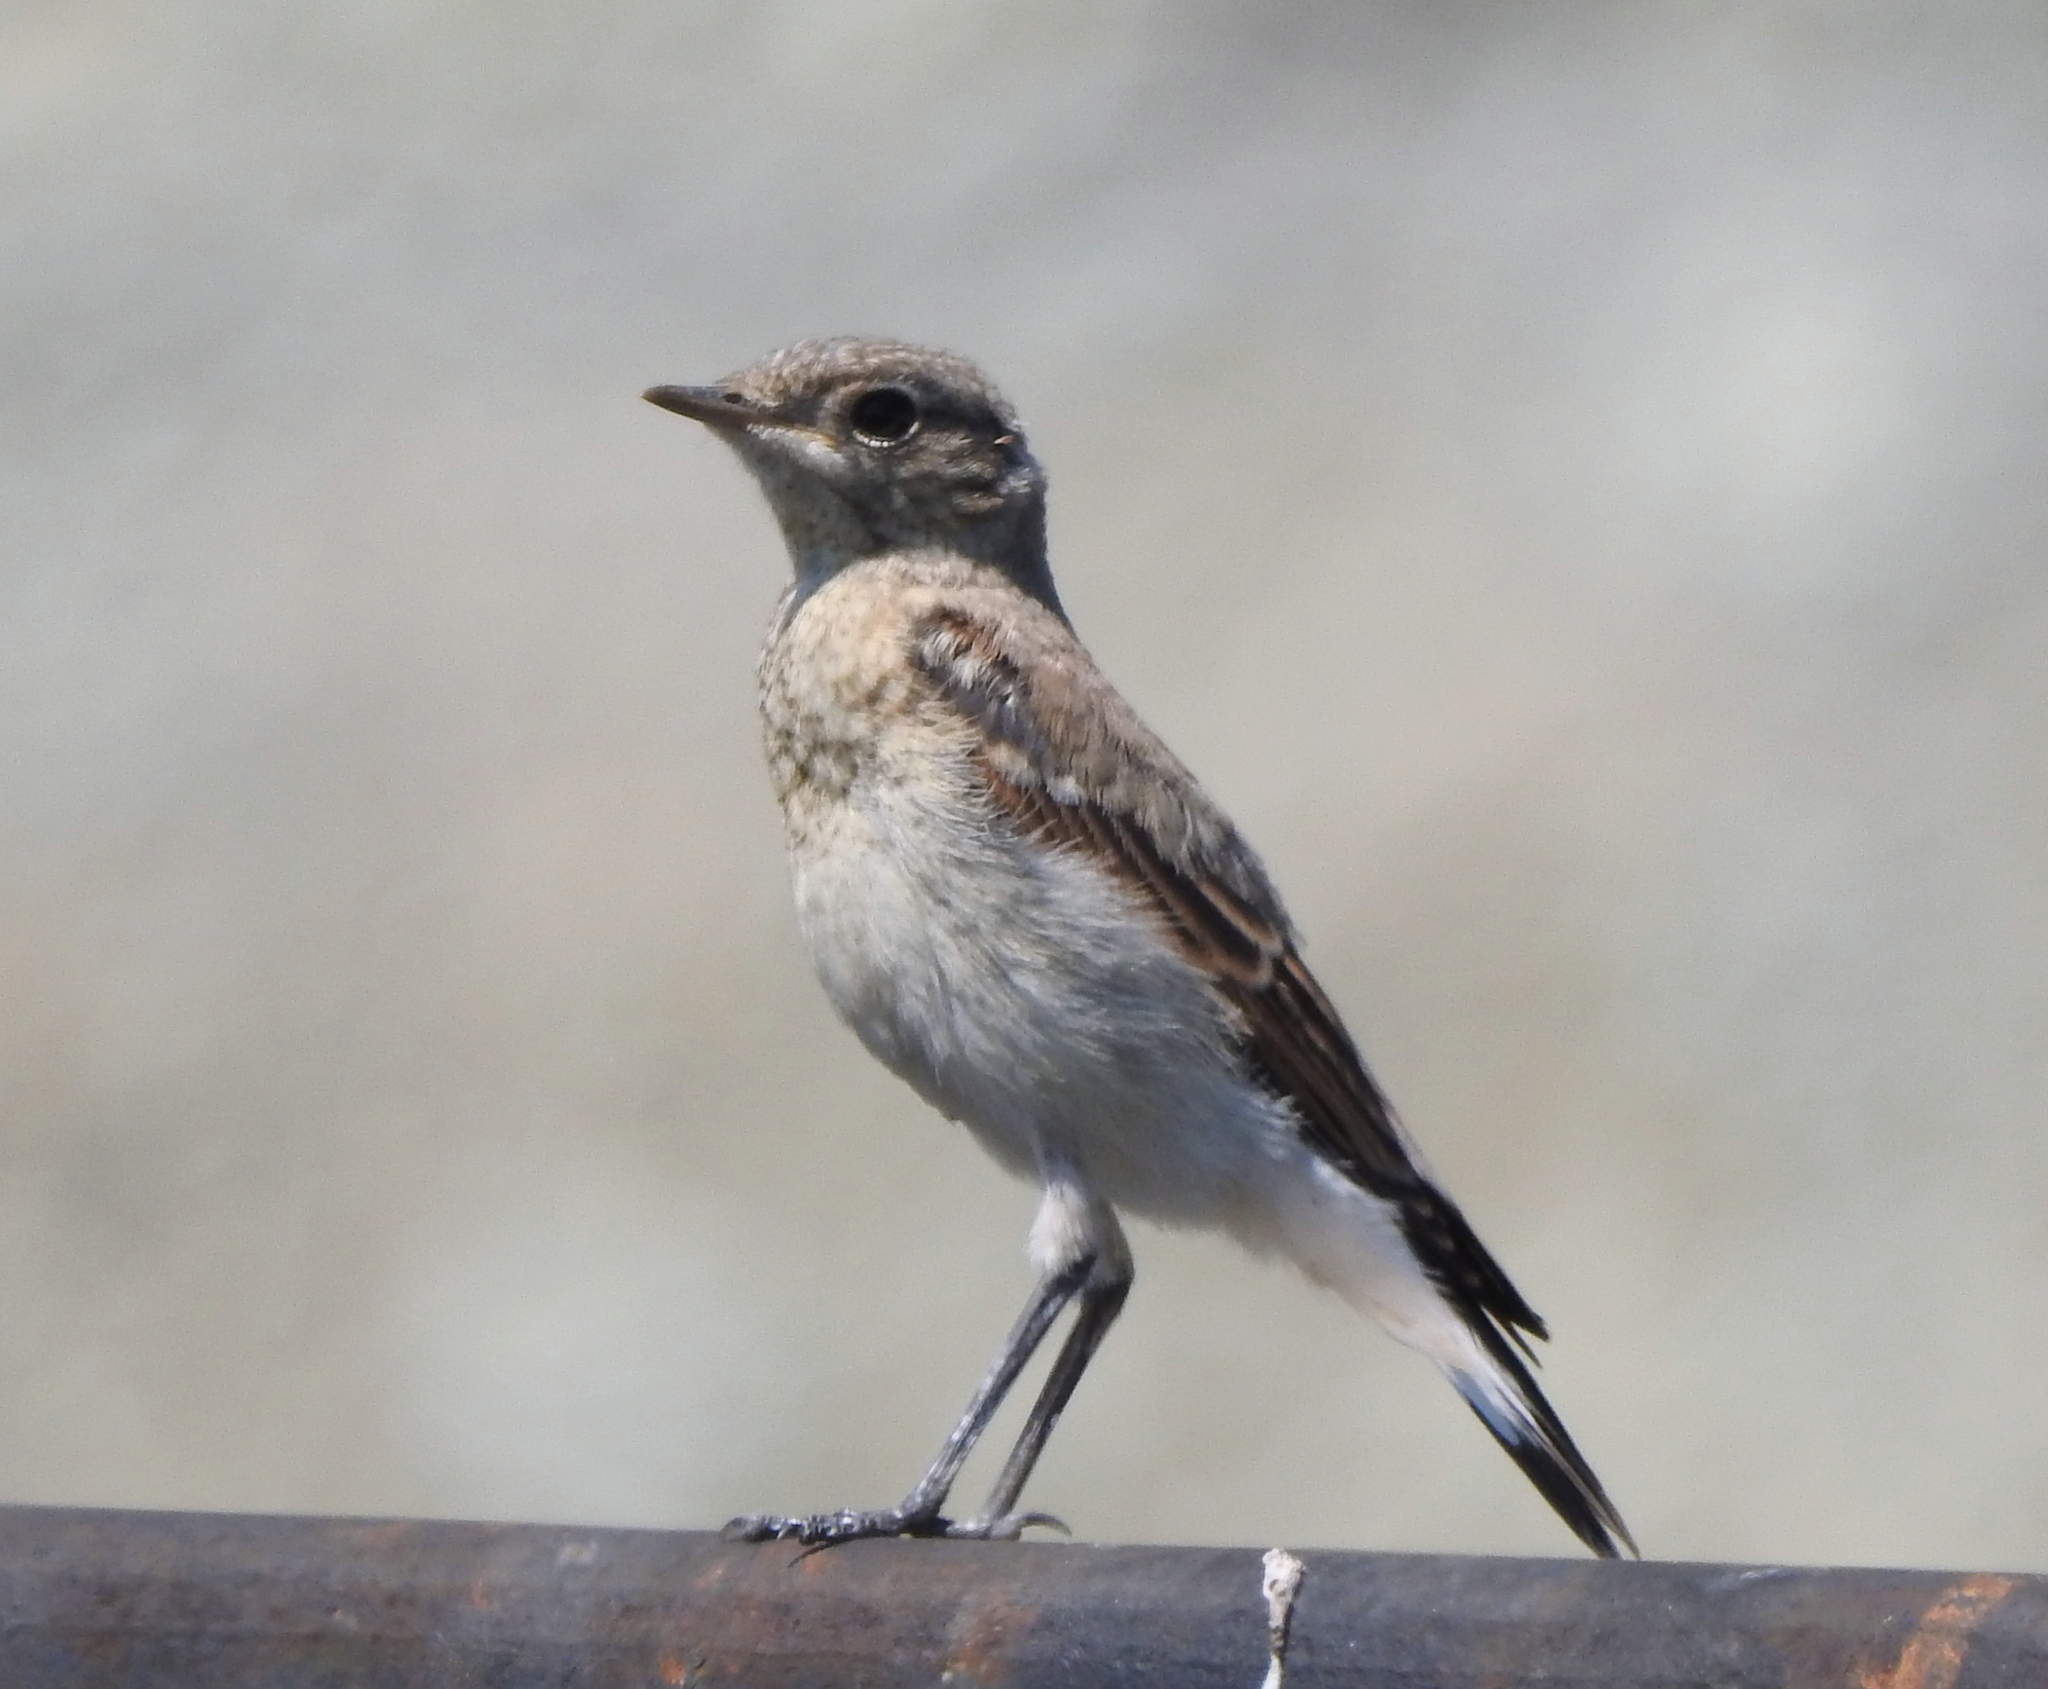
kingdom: Animalia
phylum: Chordata
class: Aves
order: Passeriformes
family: Muscicapidae
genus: Oenanthe
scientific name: Oenanthe oenanthe
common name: Northern wheatear
